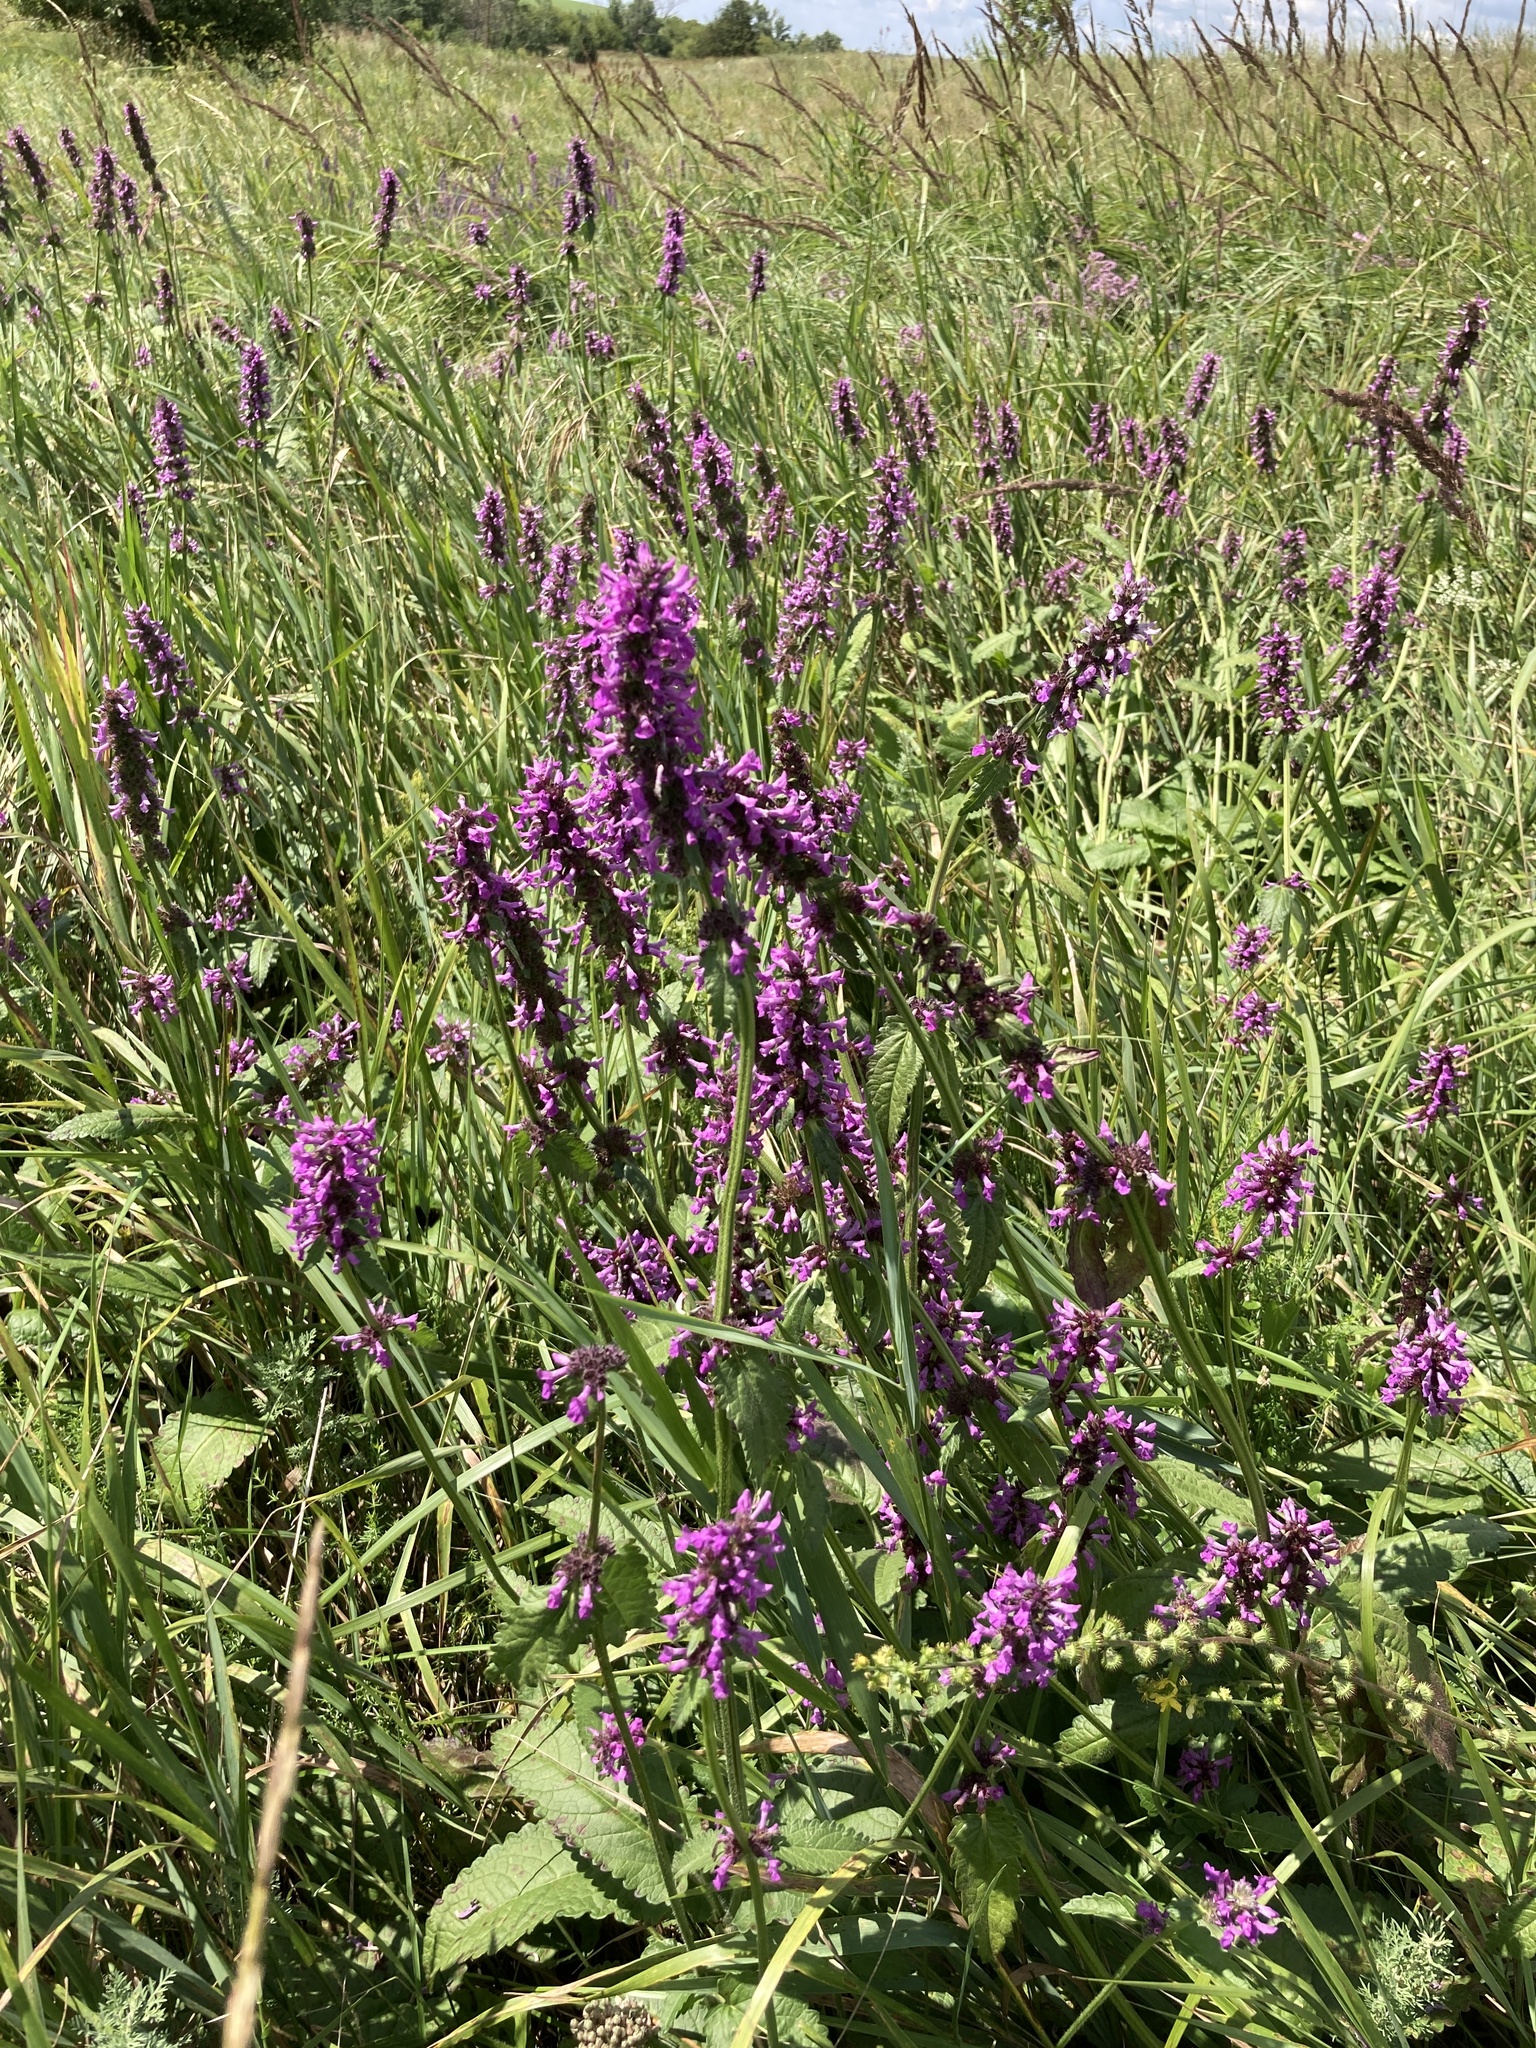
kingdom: Plantae
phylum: Tracheophyta
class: Magnoliopsida
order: Lamiales
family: Lamiaceae
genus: Betonica
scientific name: Betonica officinalis
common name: Bishop's-wort
